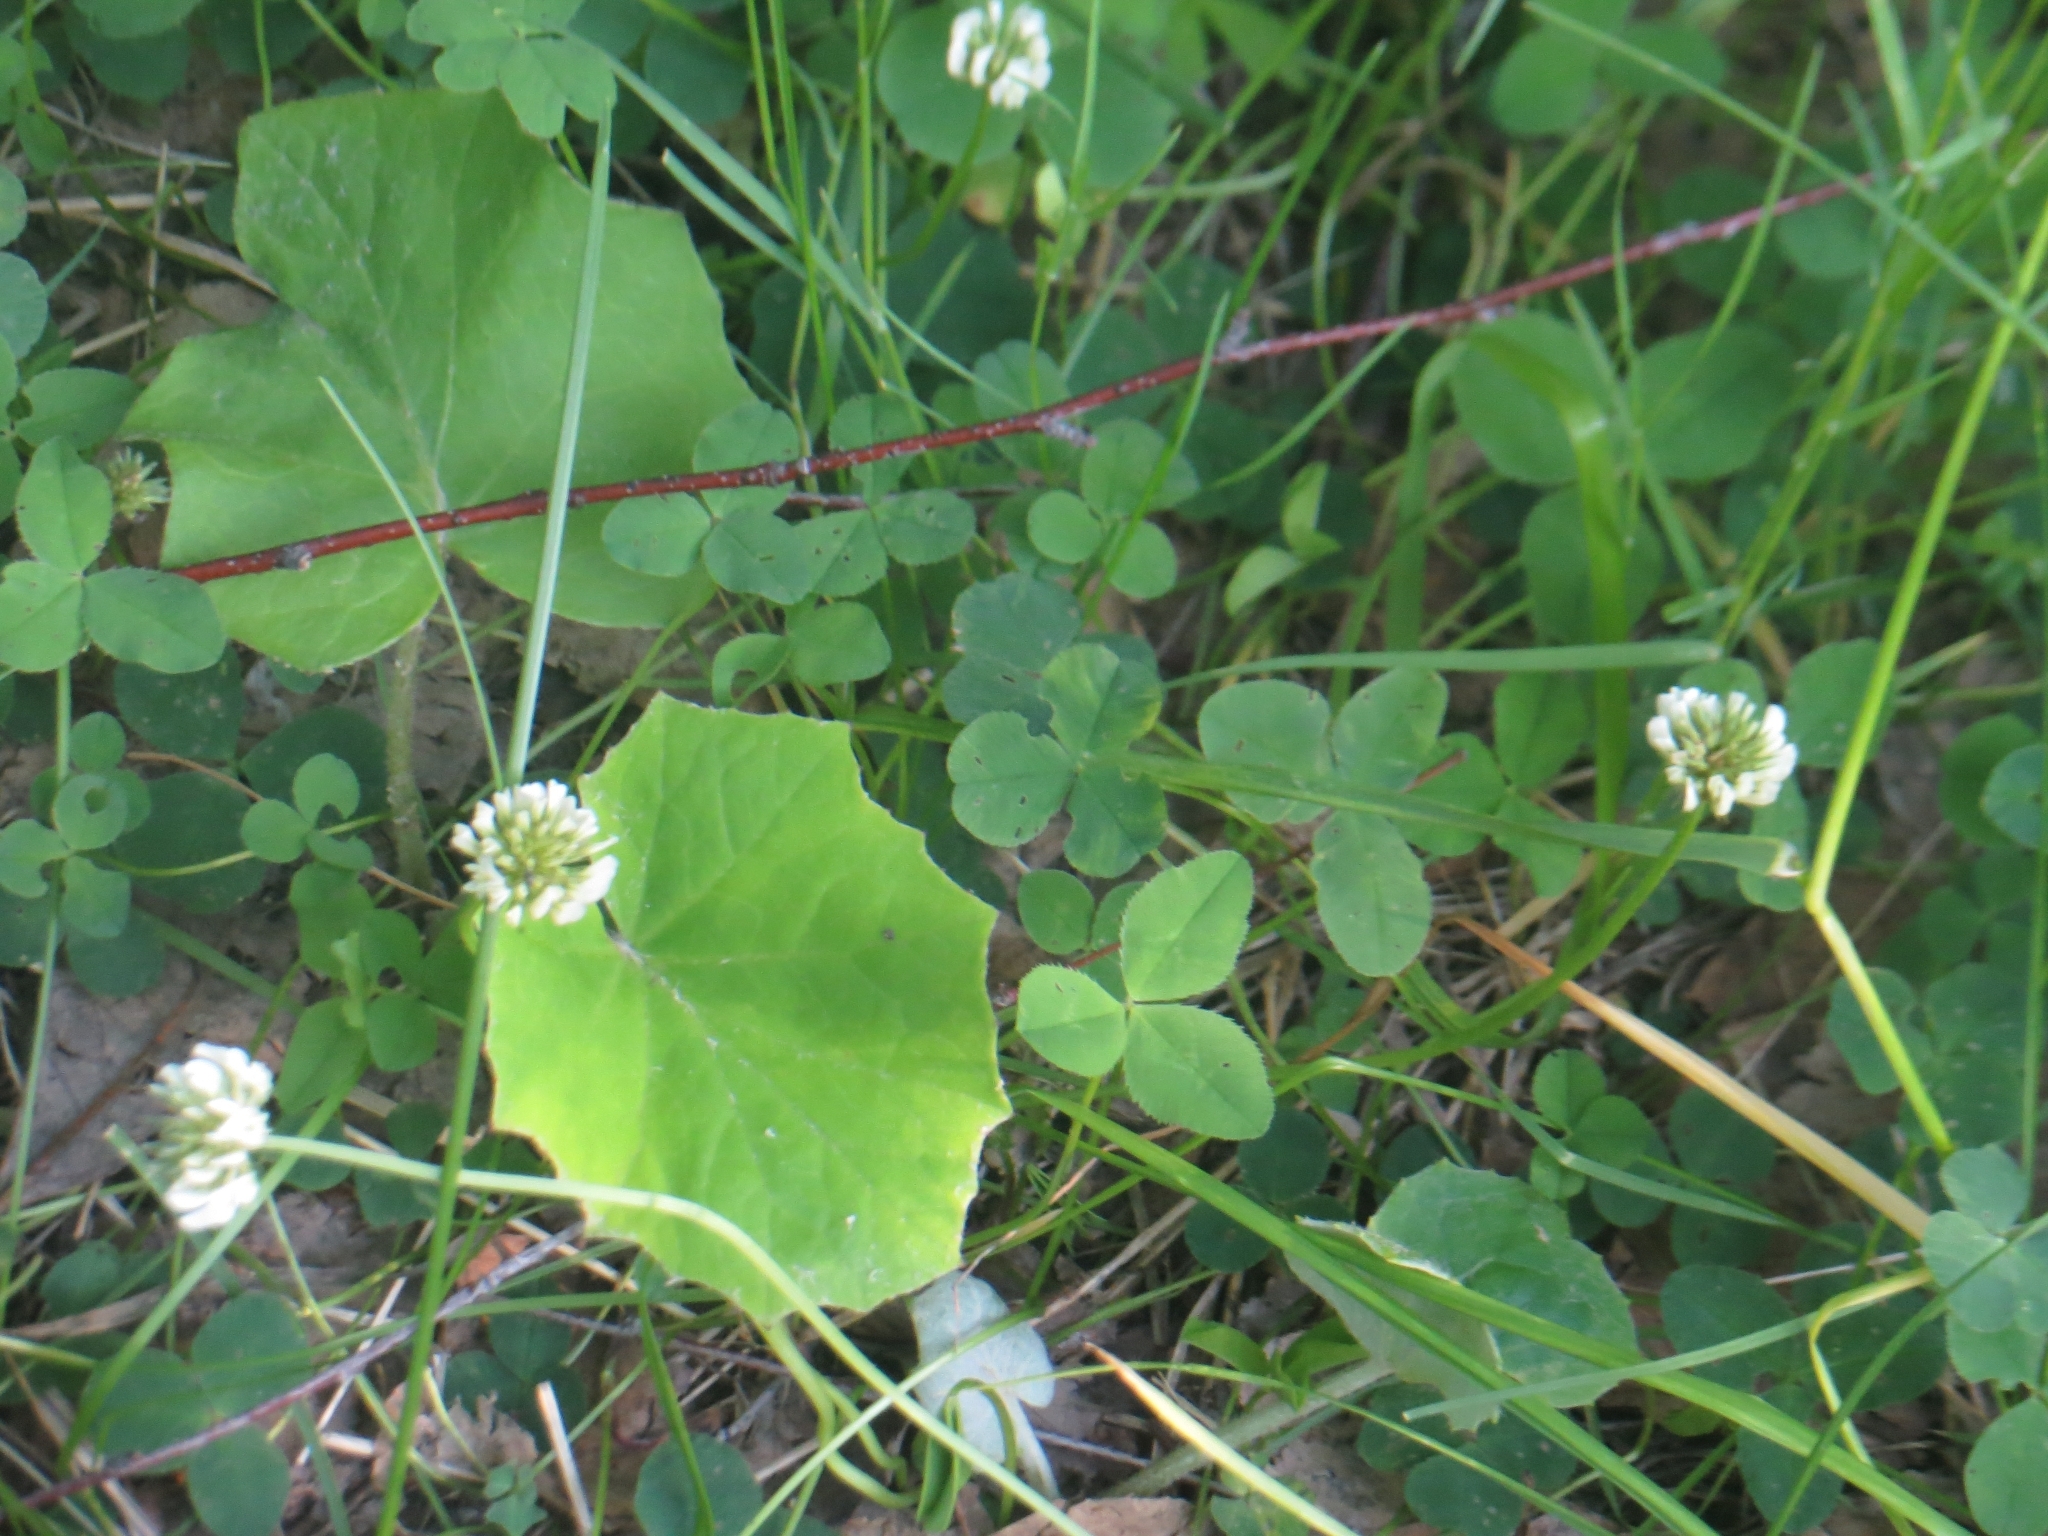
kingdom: Plantae
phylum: Tracheophyta
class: Magnoliopsida
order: Fabales
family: Fabaceae
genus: Trifolium
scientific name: Trifolium repens
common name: White clover
